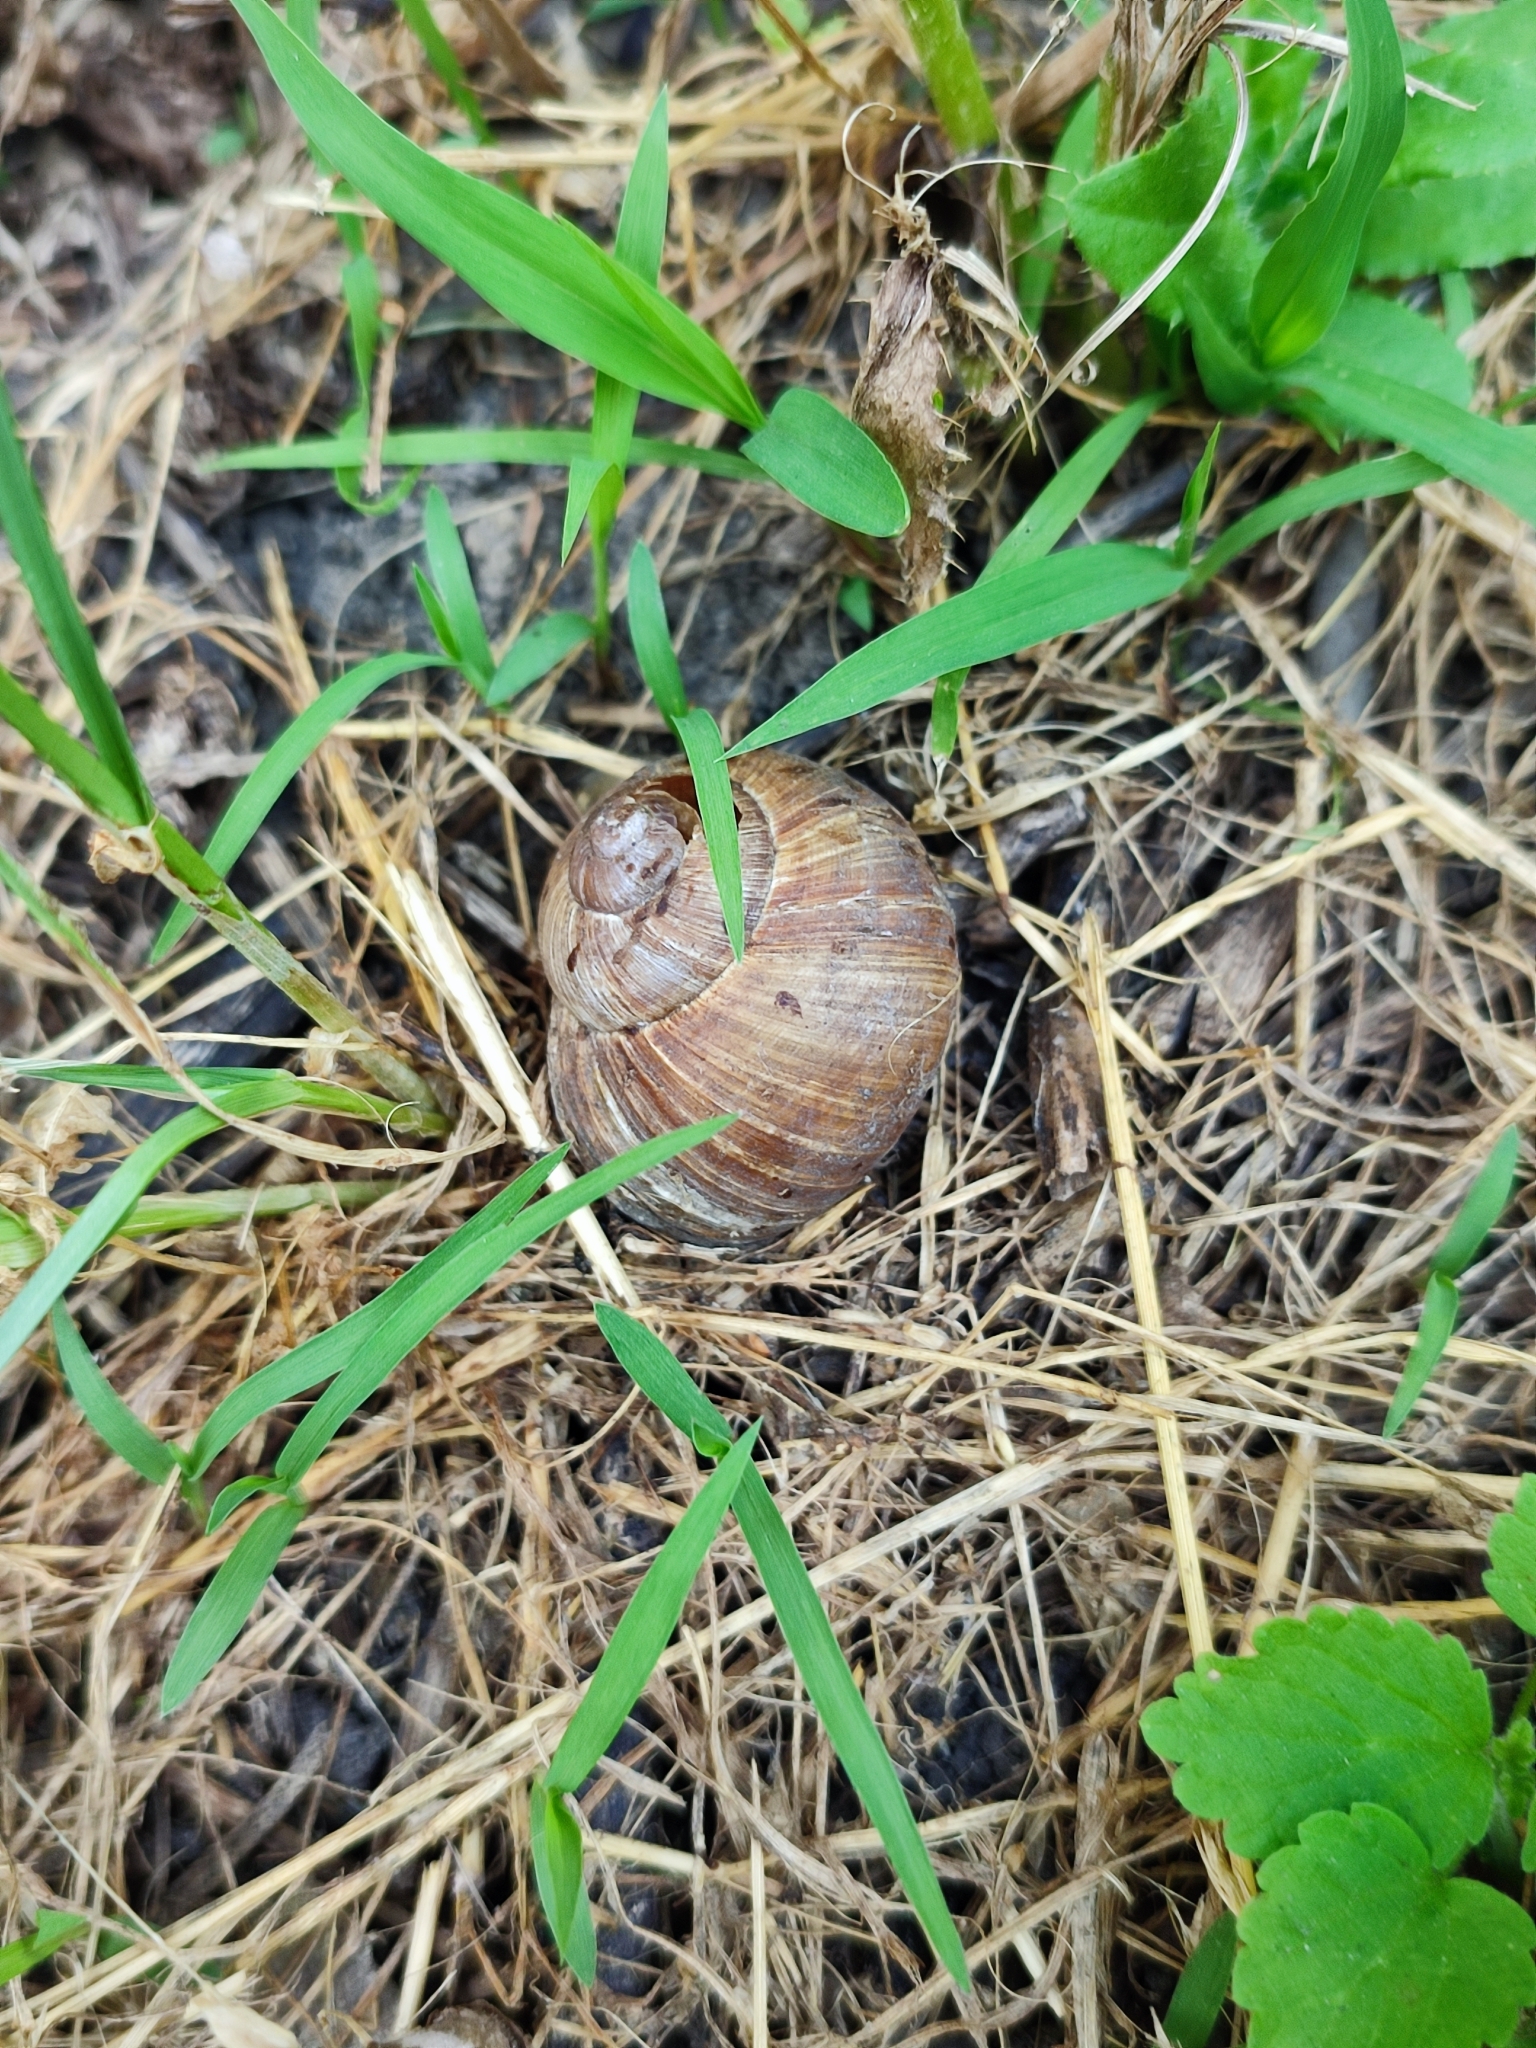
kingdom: Animalia
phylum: Mollusca
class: Gastropoda
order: Stylommatophora
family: Helicidae
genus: Helix
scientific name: Helix pomatia
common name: Roman snail
